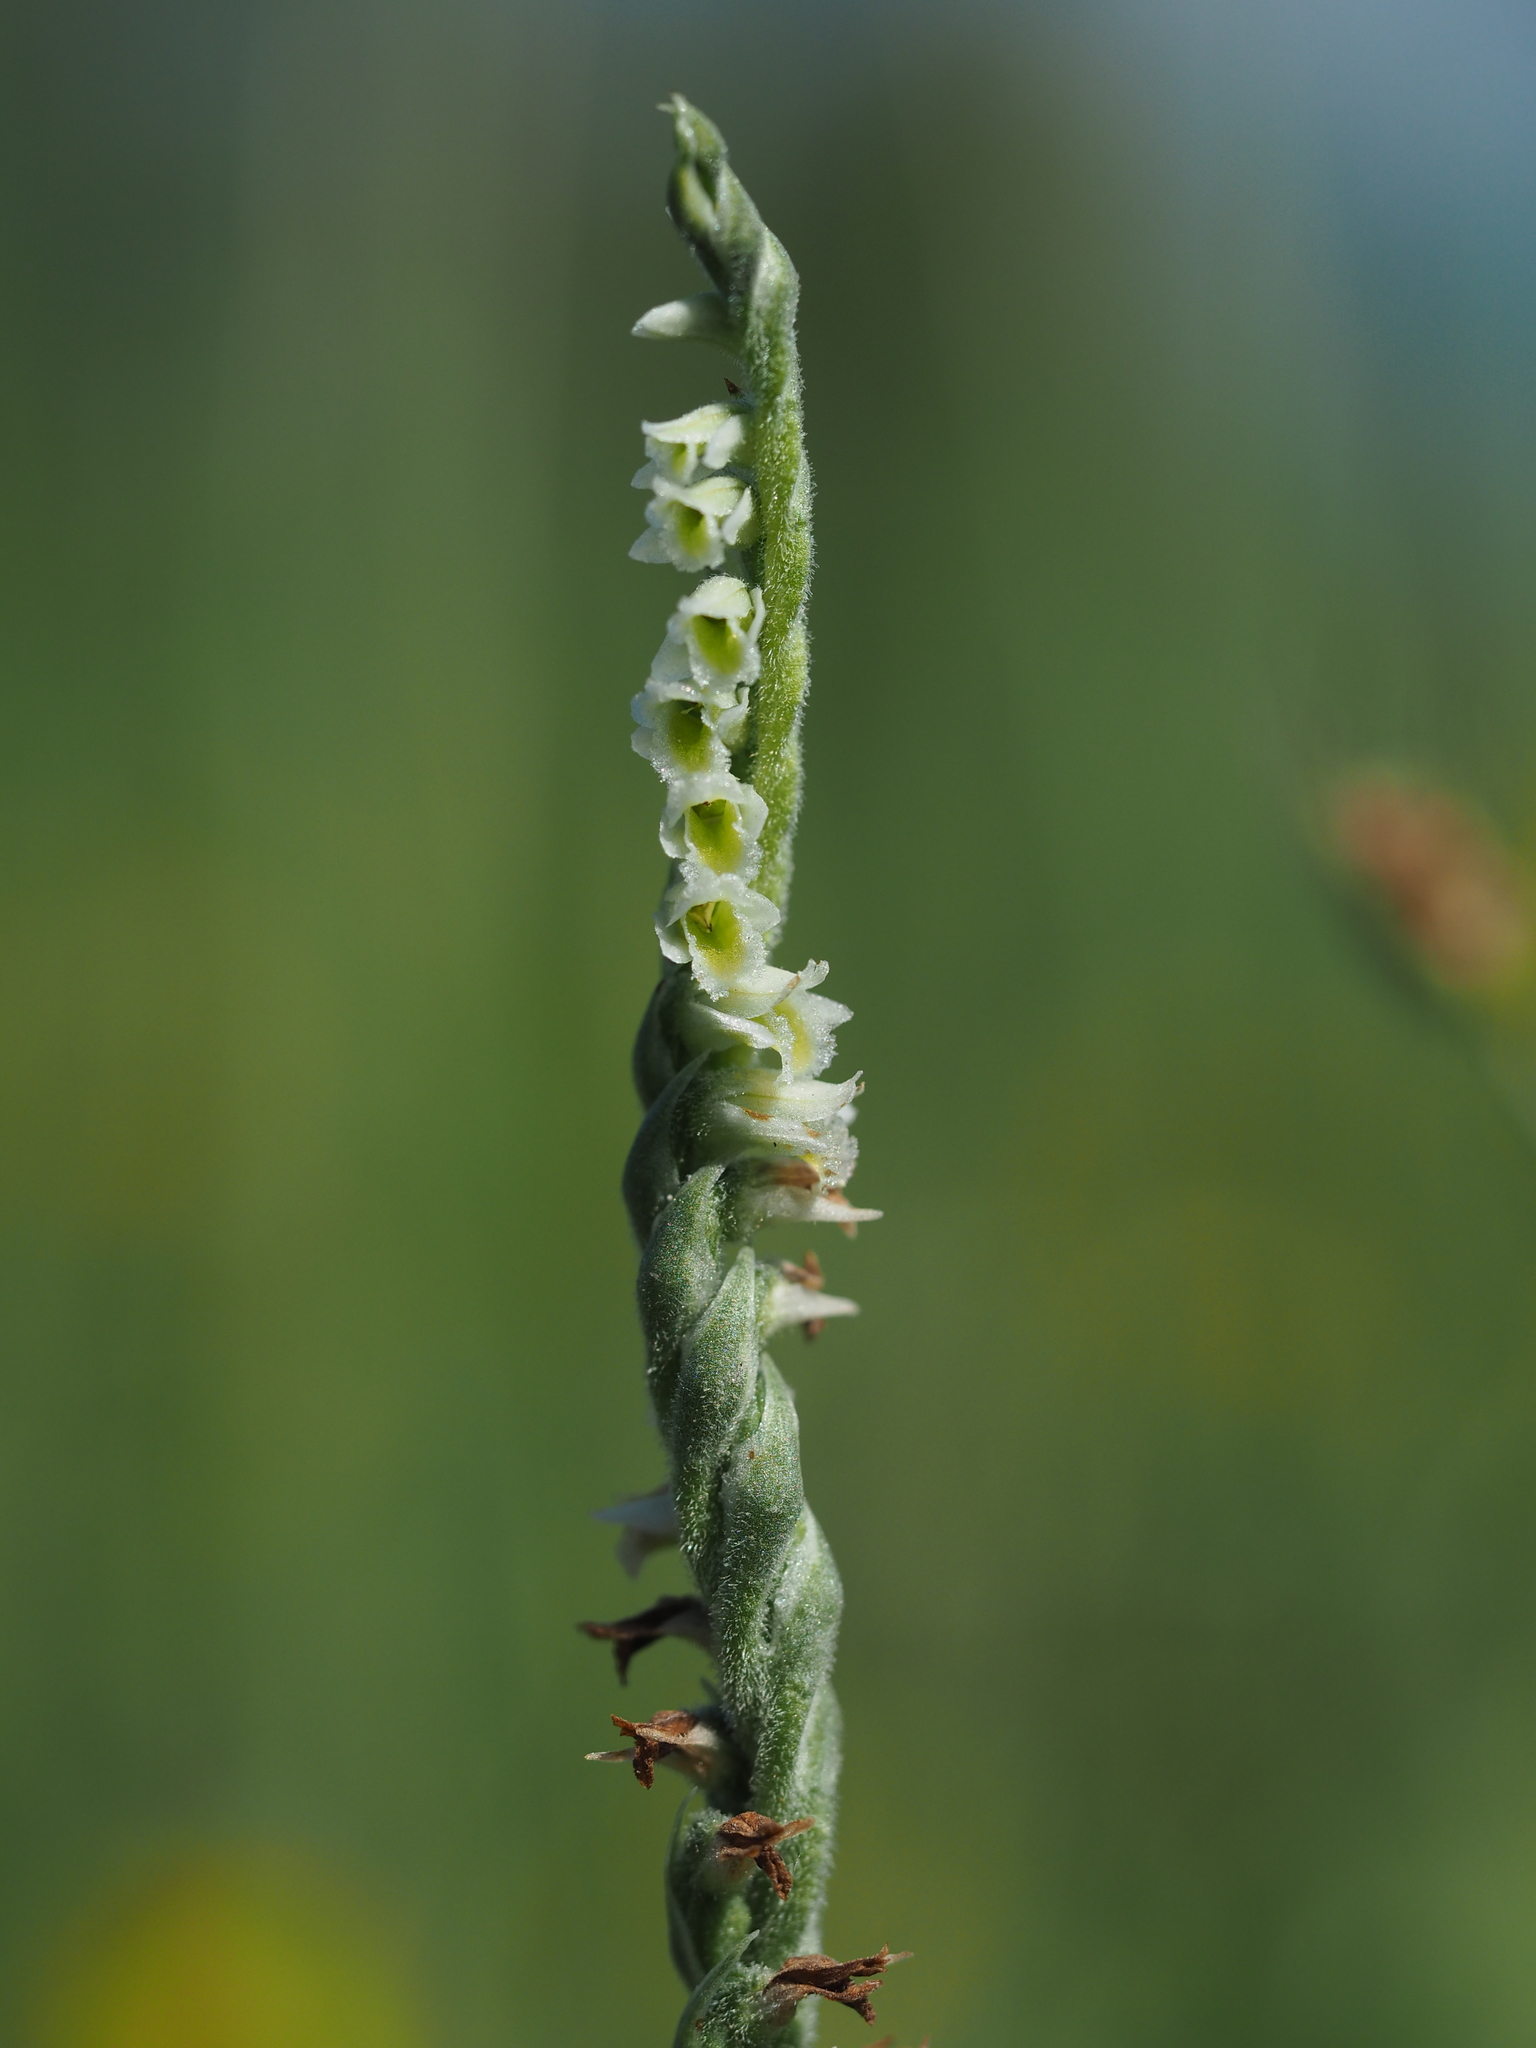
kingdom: Plantae
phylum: Tracheophyta
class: Liliopsida
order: Asparagales
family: Orchidaceae
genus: Spiranthes
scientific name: Spiranthes spiralis
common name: Autumn lady's-tresses
